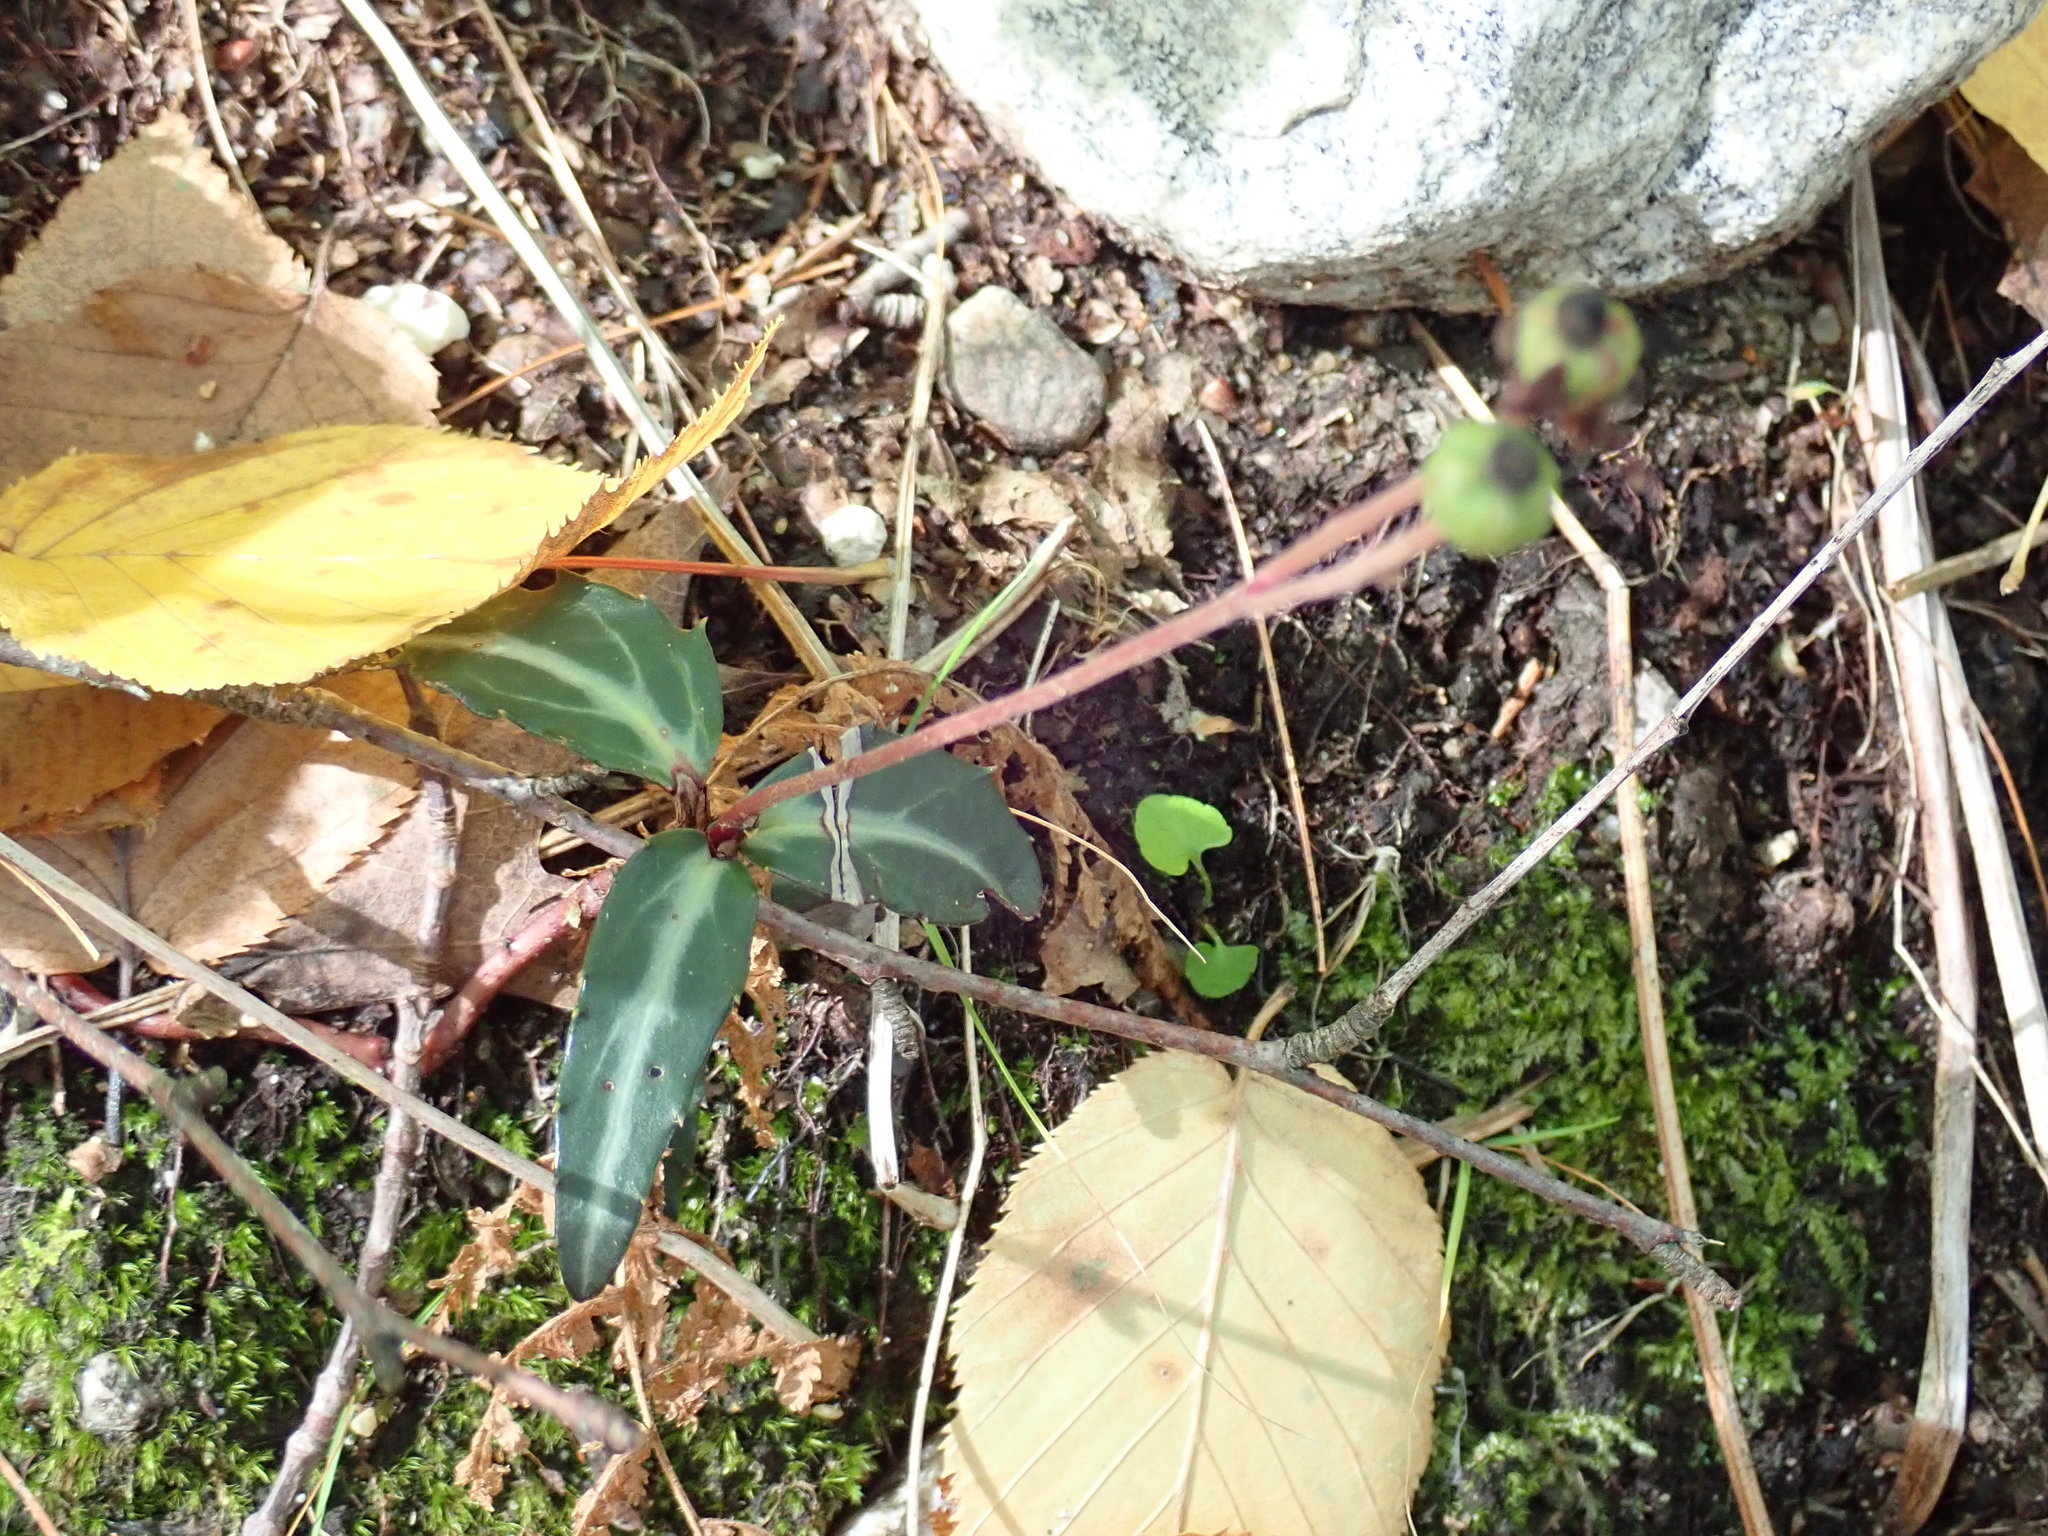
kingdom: Plantae
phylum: Tracheophyta
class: Magnoliopsida
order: Ericales
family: Ericaceae
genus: Chimaphila
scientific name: Chimaphila maculata
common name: Spotted pipsissewa
